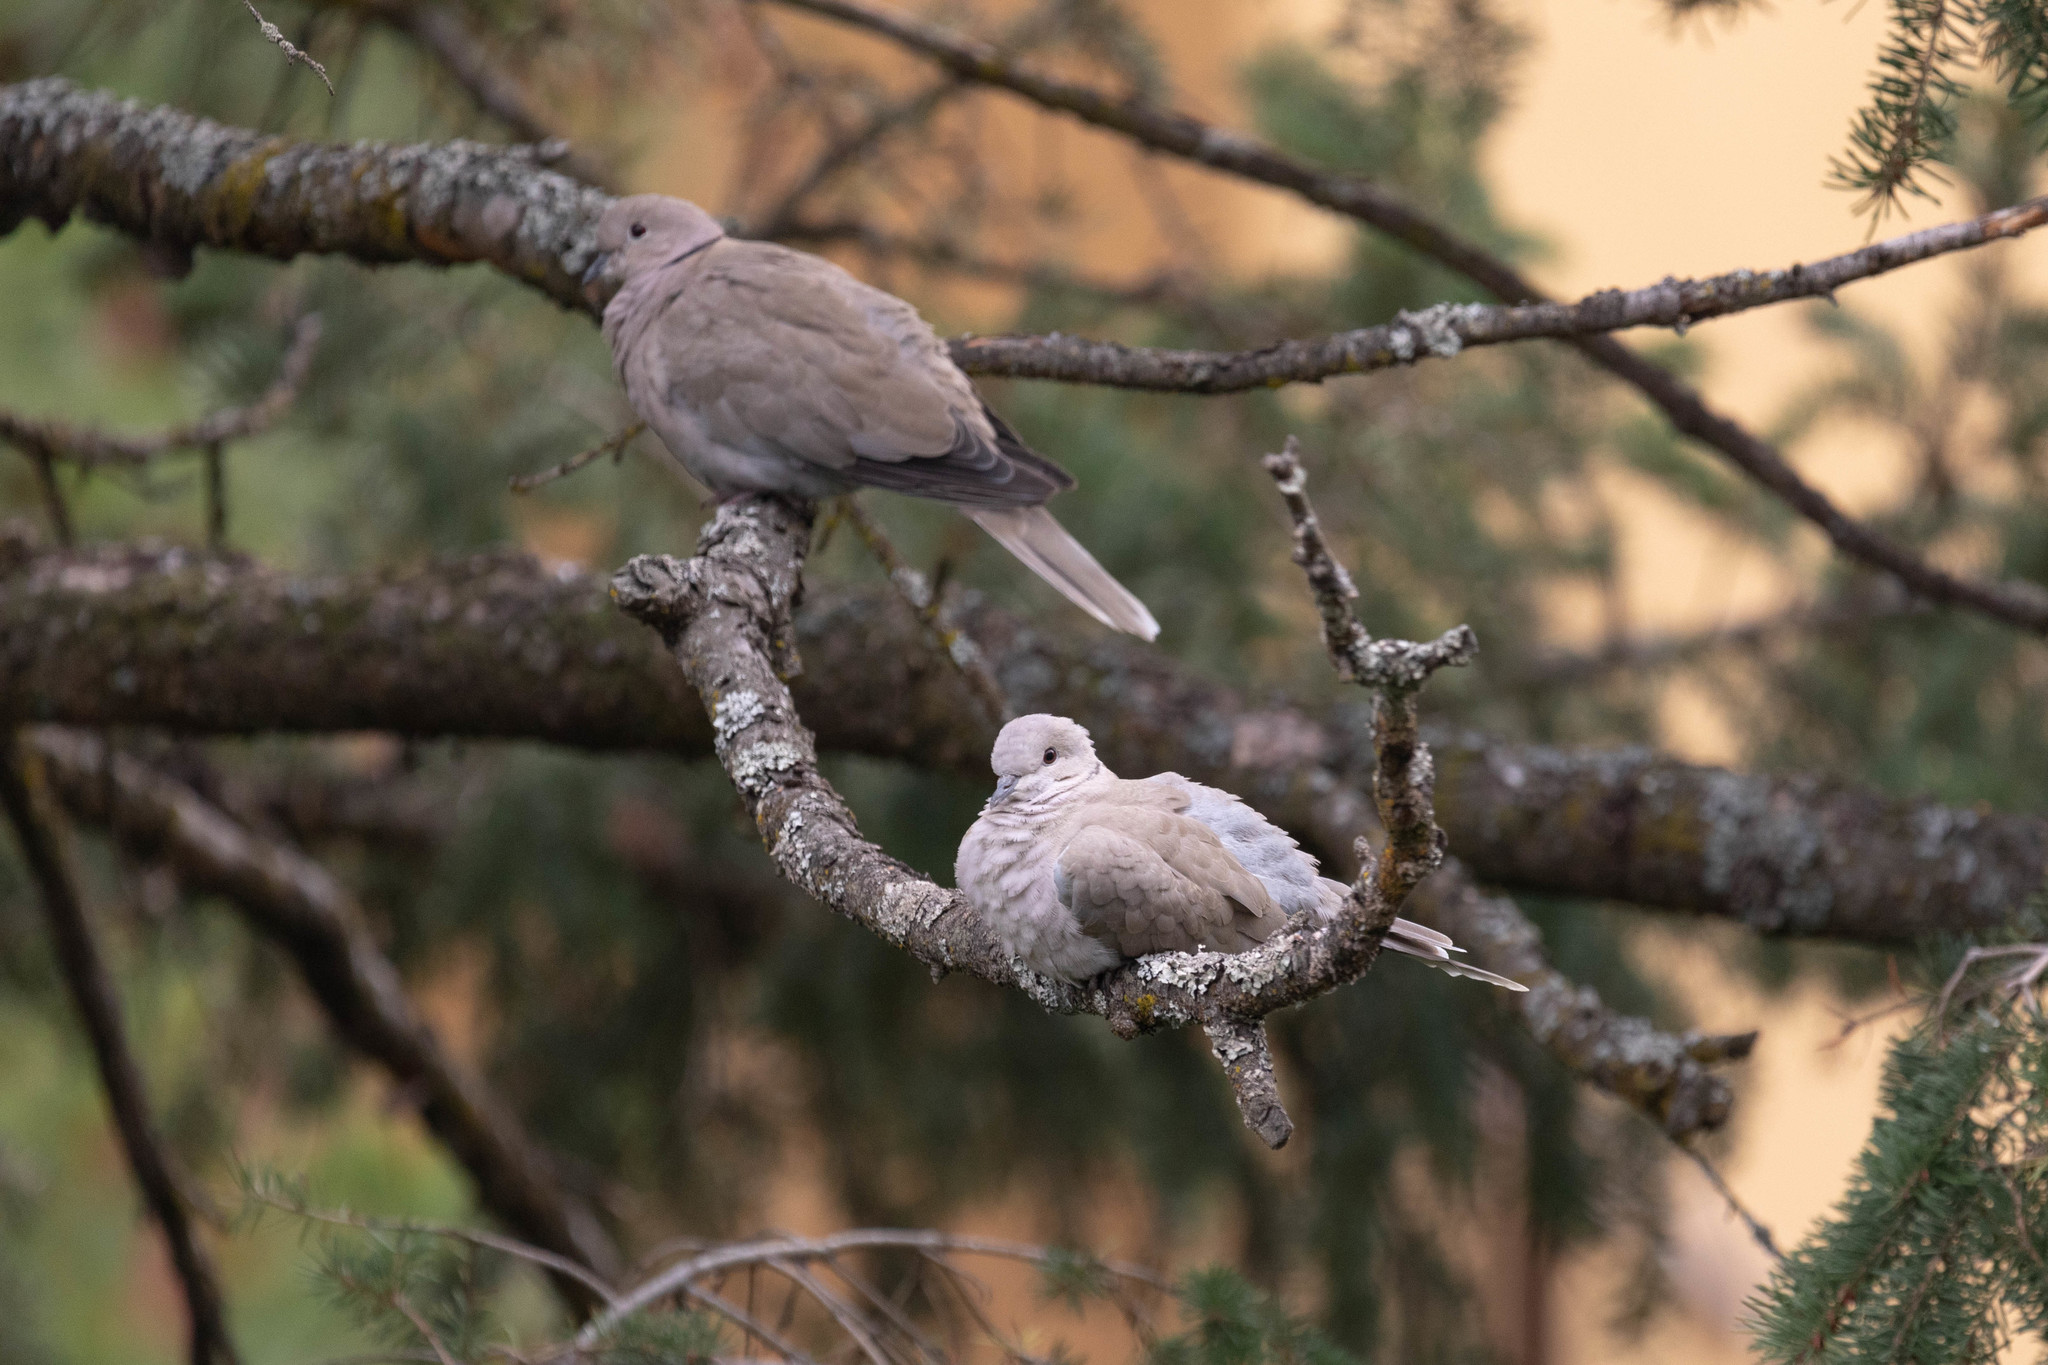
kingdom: Animalia
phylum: Chordata
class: Aves
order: Columbiformes
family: Columbidae
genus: Streptopelia
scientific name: Streptopelia decaocto
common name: Eurasian collared dove
